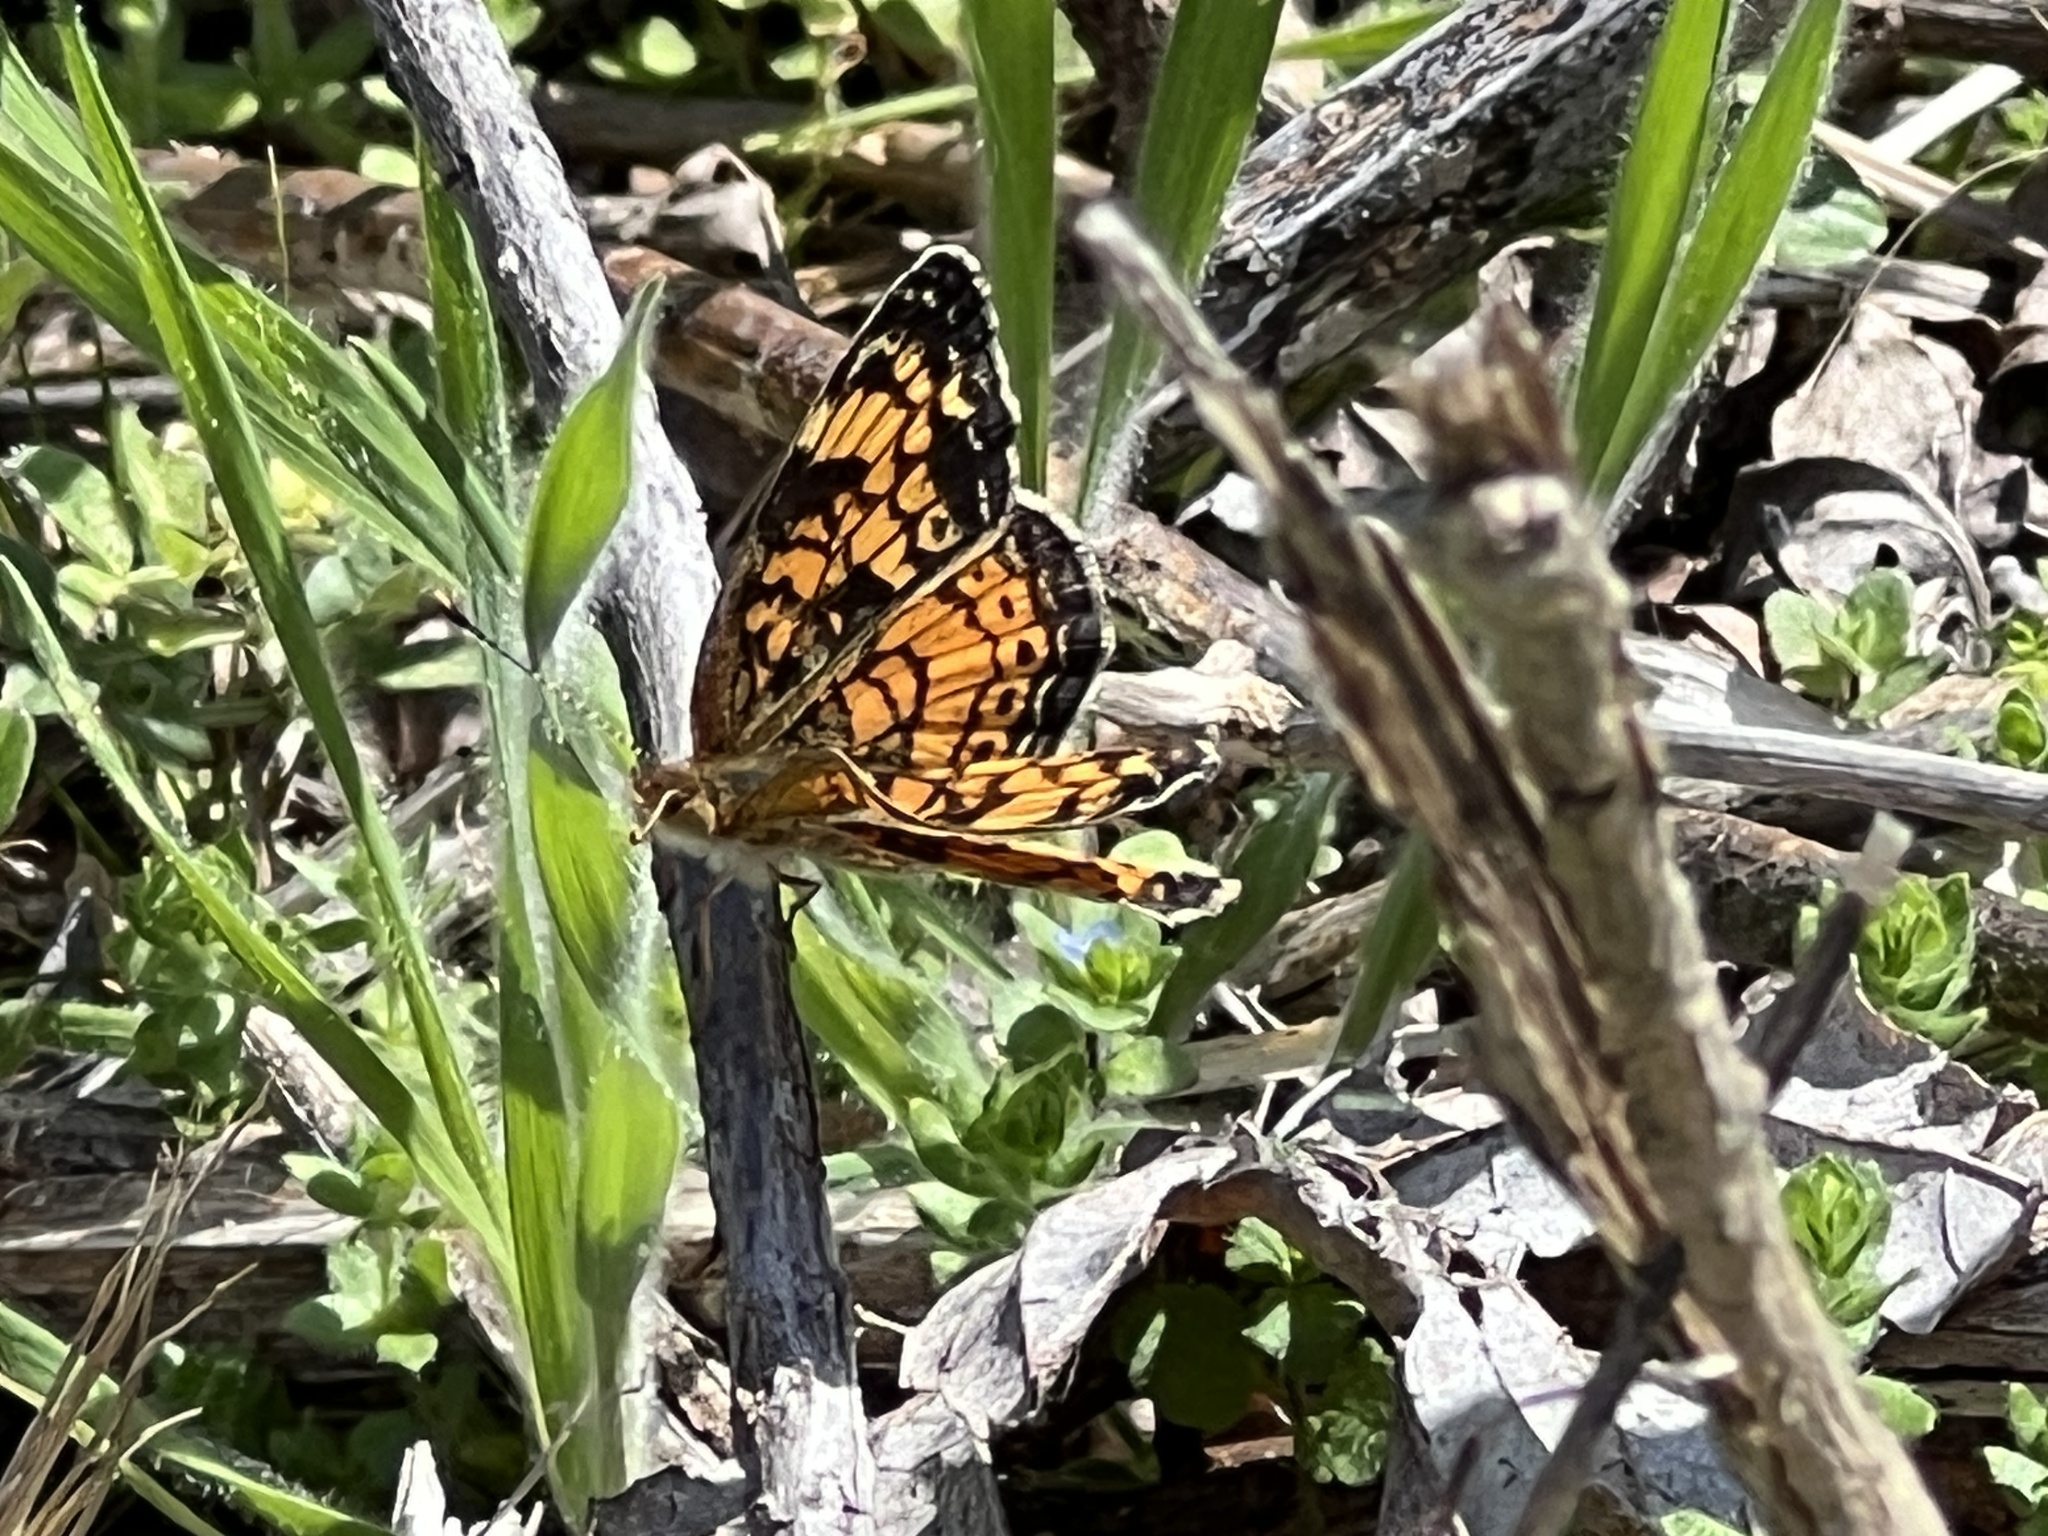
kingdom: Animalia
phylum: Arthropoda
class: Insecta
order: Lepidoptera
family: Nymphalidae
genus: Phyciodes
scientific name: Phyciodes tharos
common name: Pearl crescent
